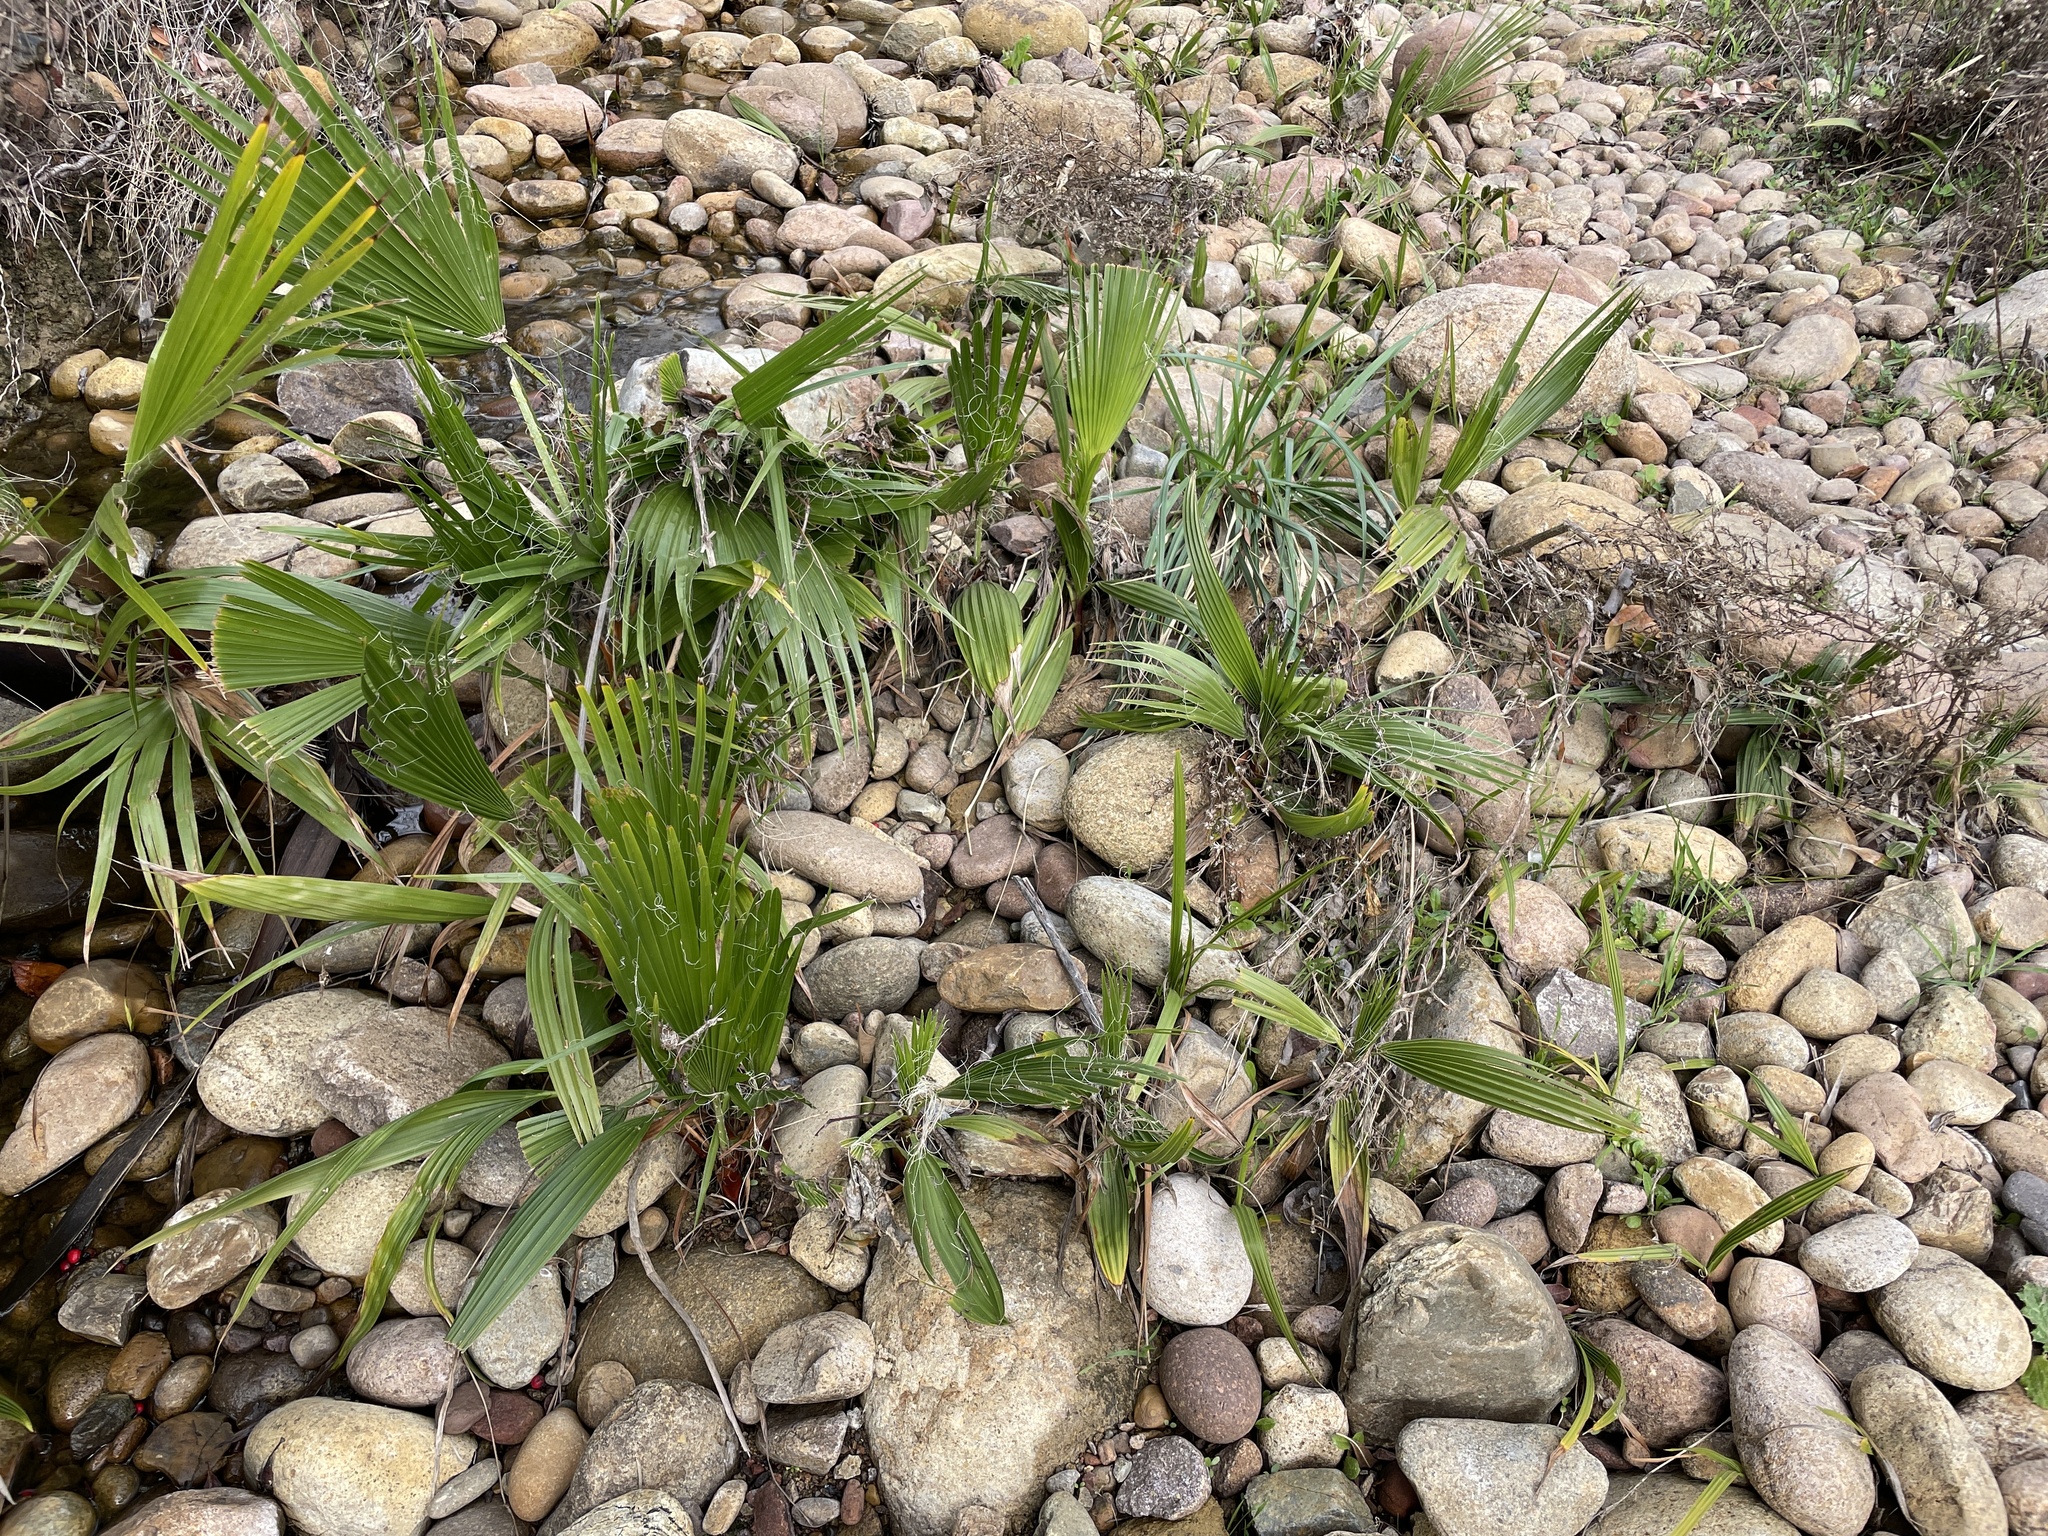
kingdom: Plantae
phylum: Tracheophyta
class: Liliopsida
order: Arecales
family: Arecaceae
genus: Washingtonia
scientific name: Washingtonia robusta
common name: Mexican fan palm
